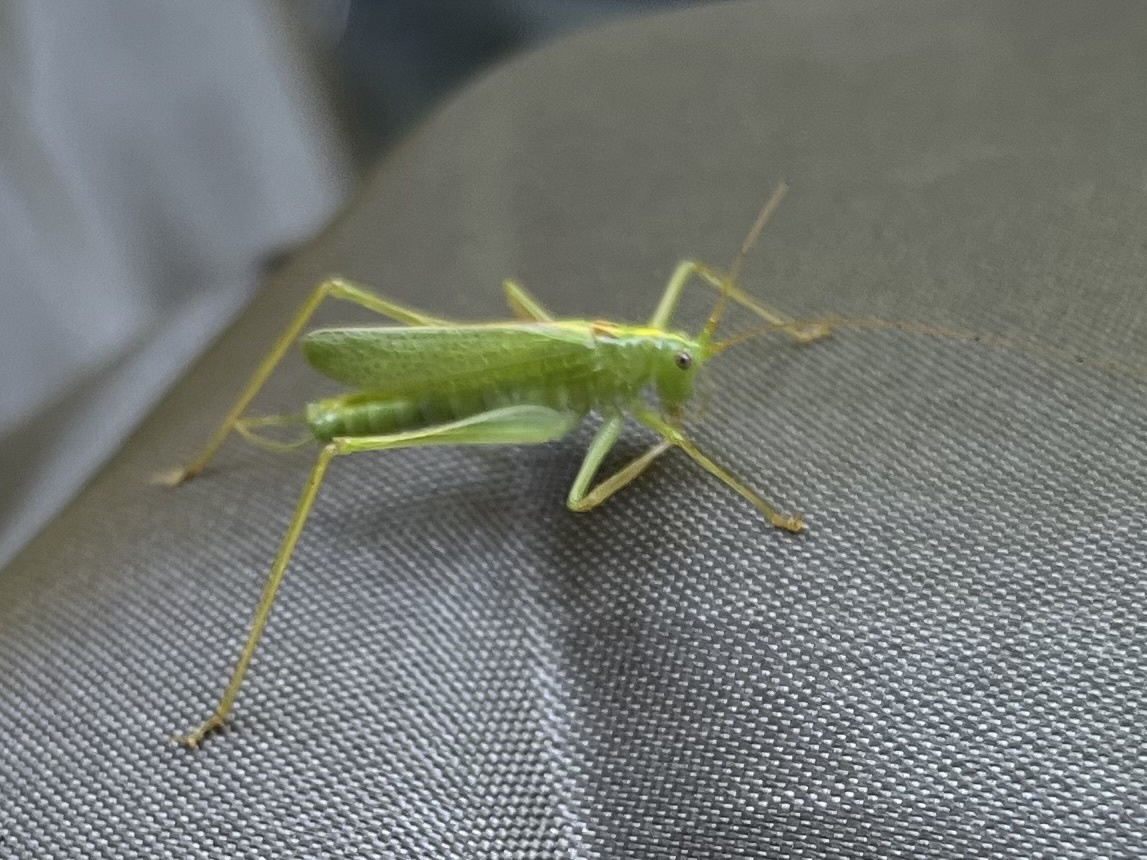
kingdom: Animalia
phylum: Arthropoda
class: Insecta
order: Orthoptera
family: Tettigoniidae
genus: Meconema
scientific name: Meconema thalassinum
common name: Oak bush-cricket
